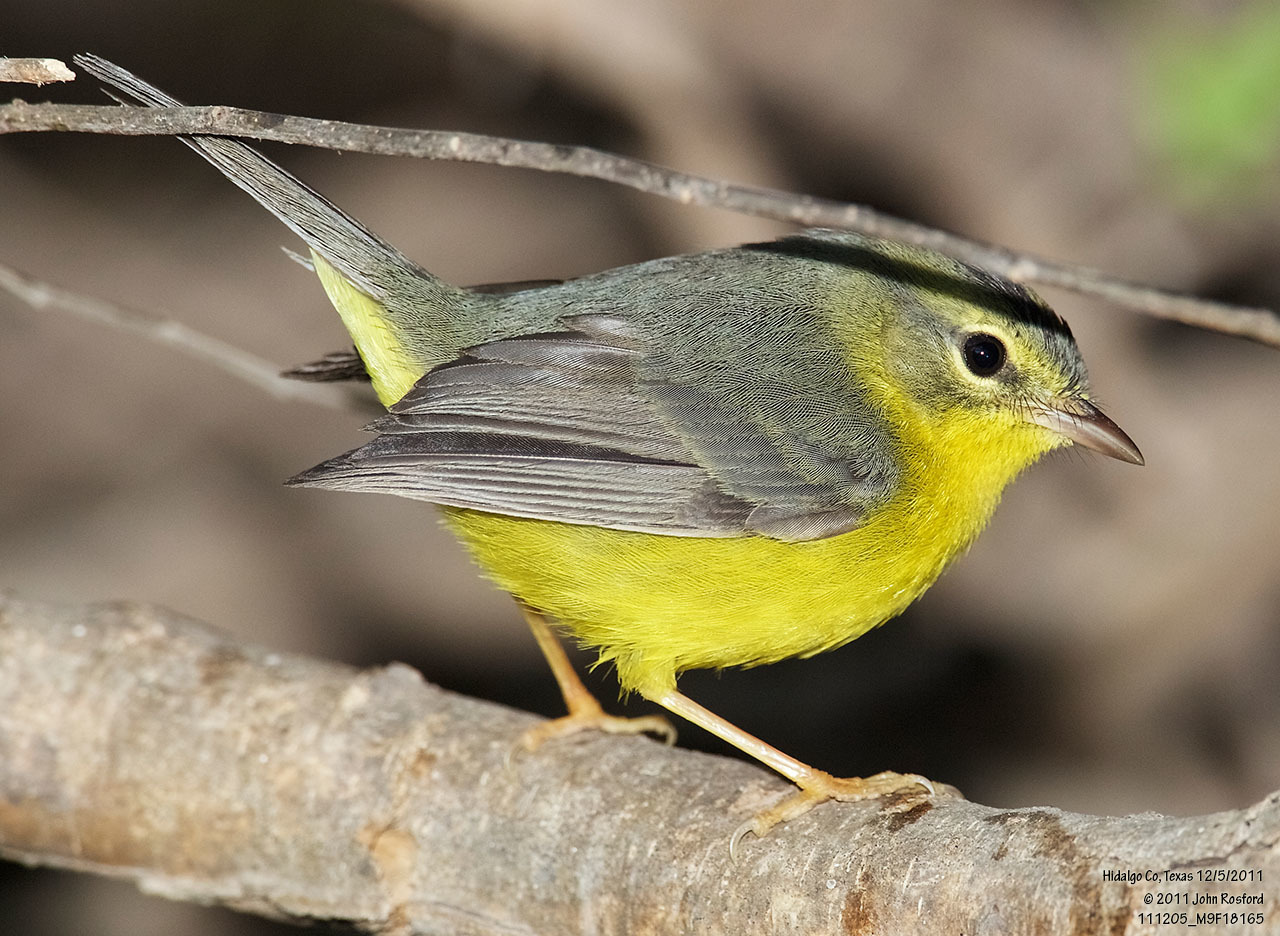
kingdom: Animalia
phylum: Chordata
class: Aves
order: Passeriformes
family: Parulidae
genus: Basileuterus
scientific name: Basileuterus culicivorus
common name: Golden-crowned warbler
